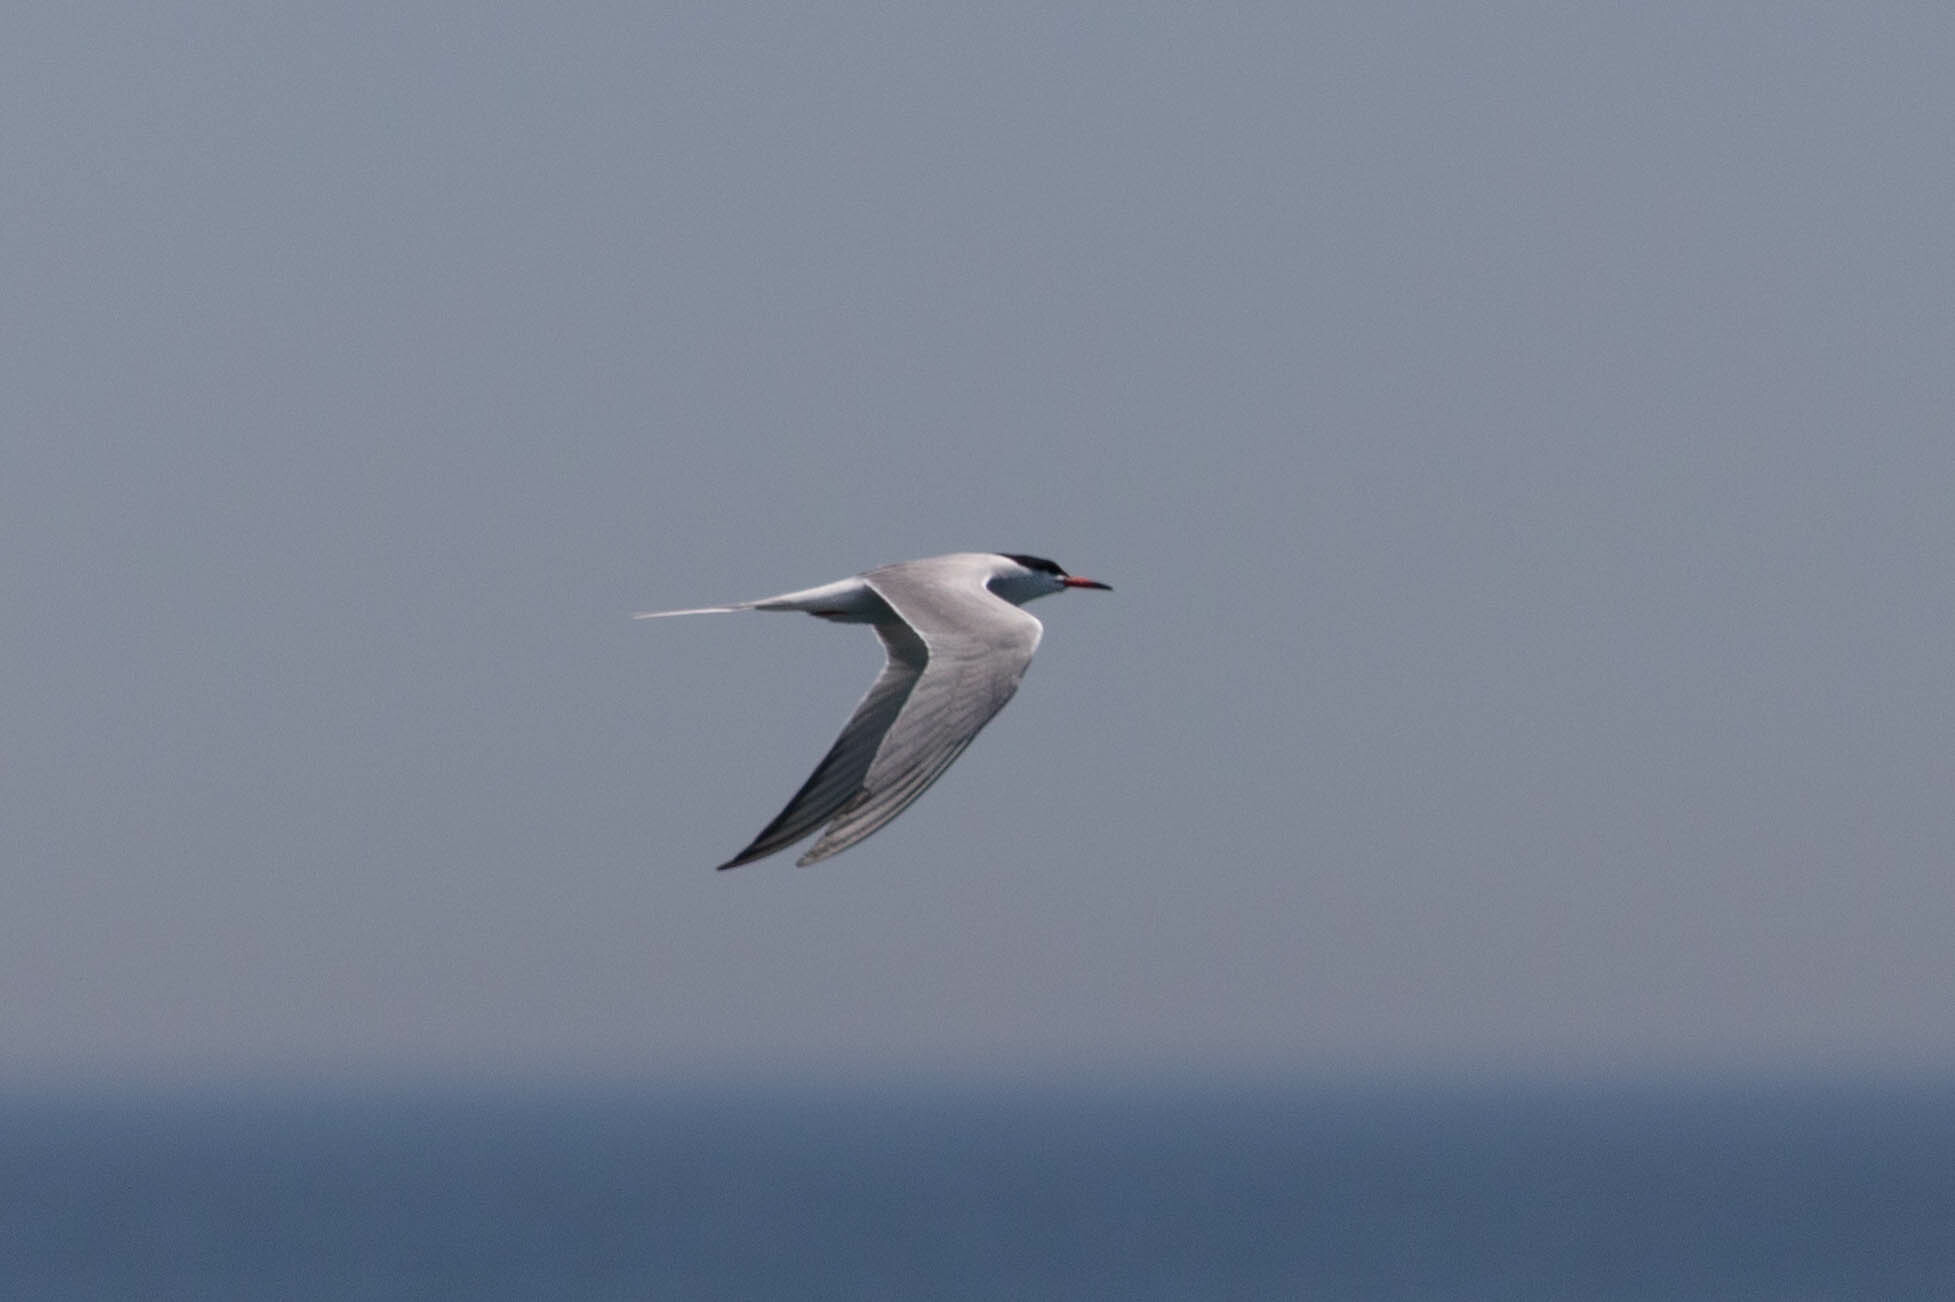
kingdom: Animalia
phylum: Chordata
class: Aves
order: Charadriiformes
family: Laridae
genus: Sterna
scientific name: Sterna hirundo
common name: Common tern
